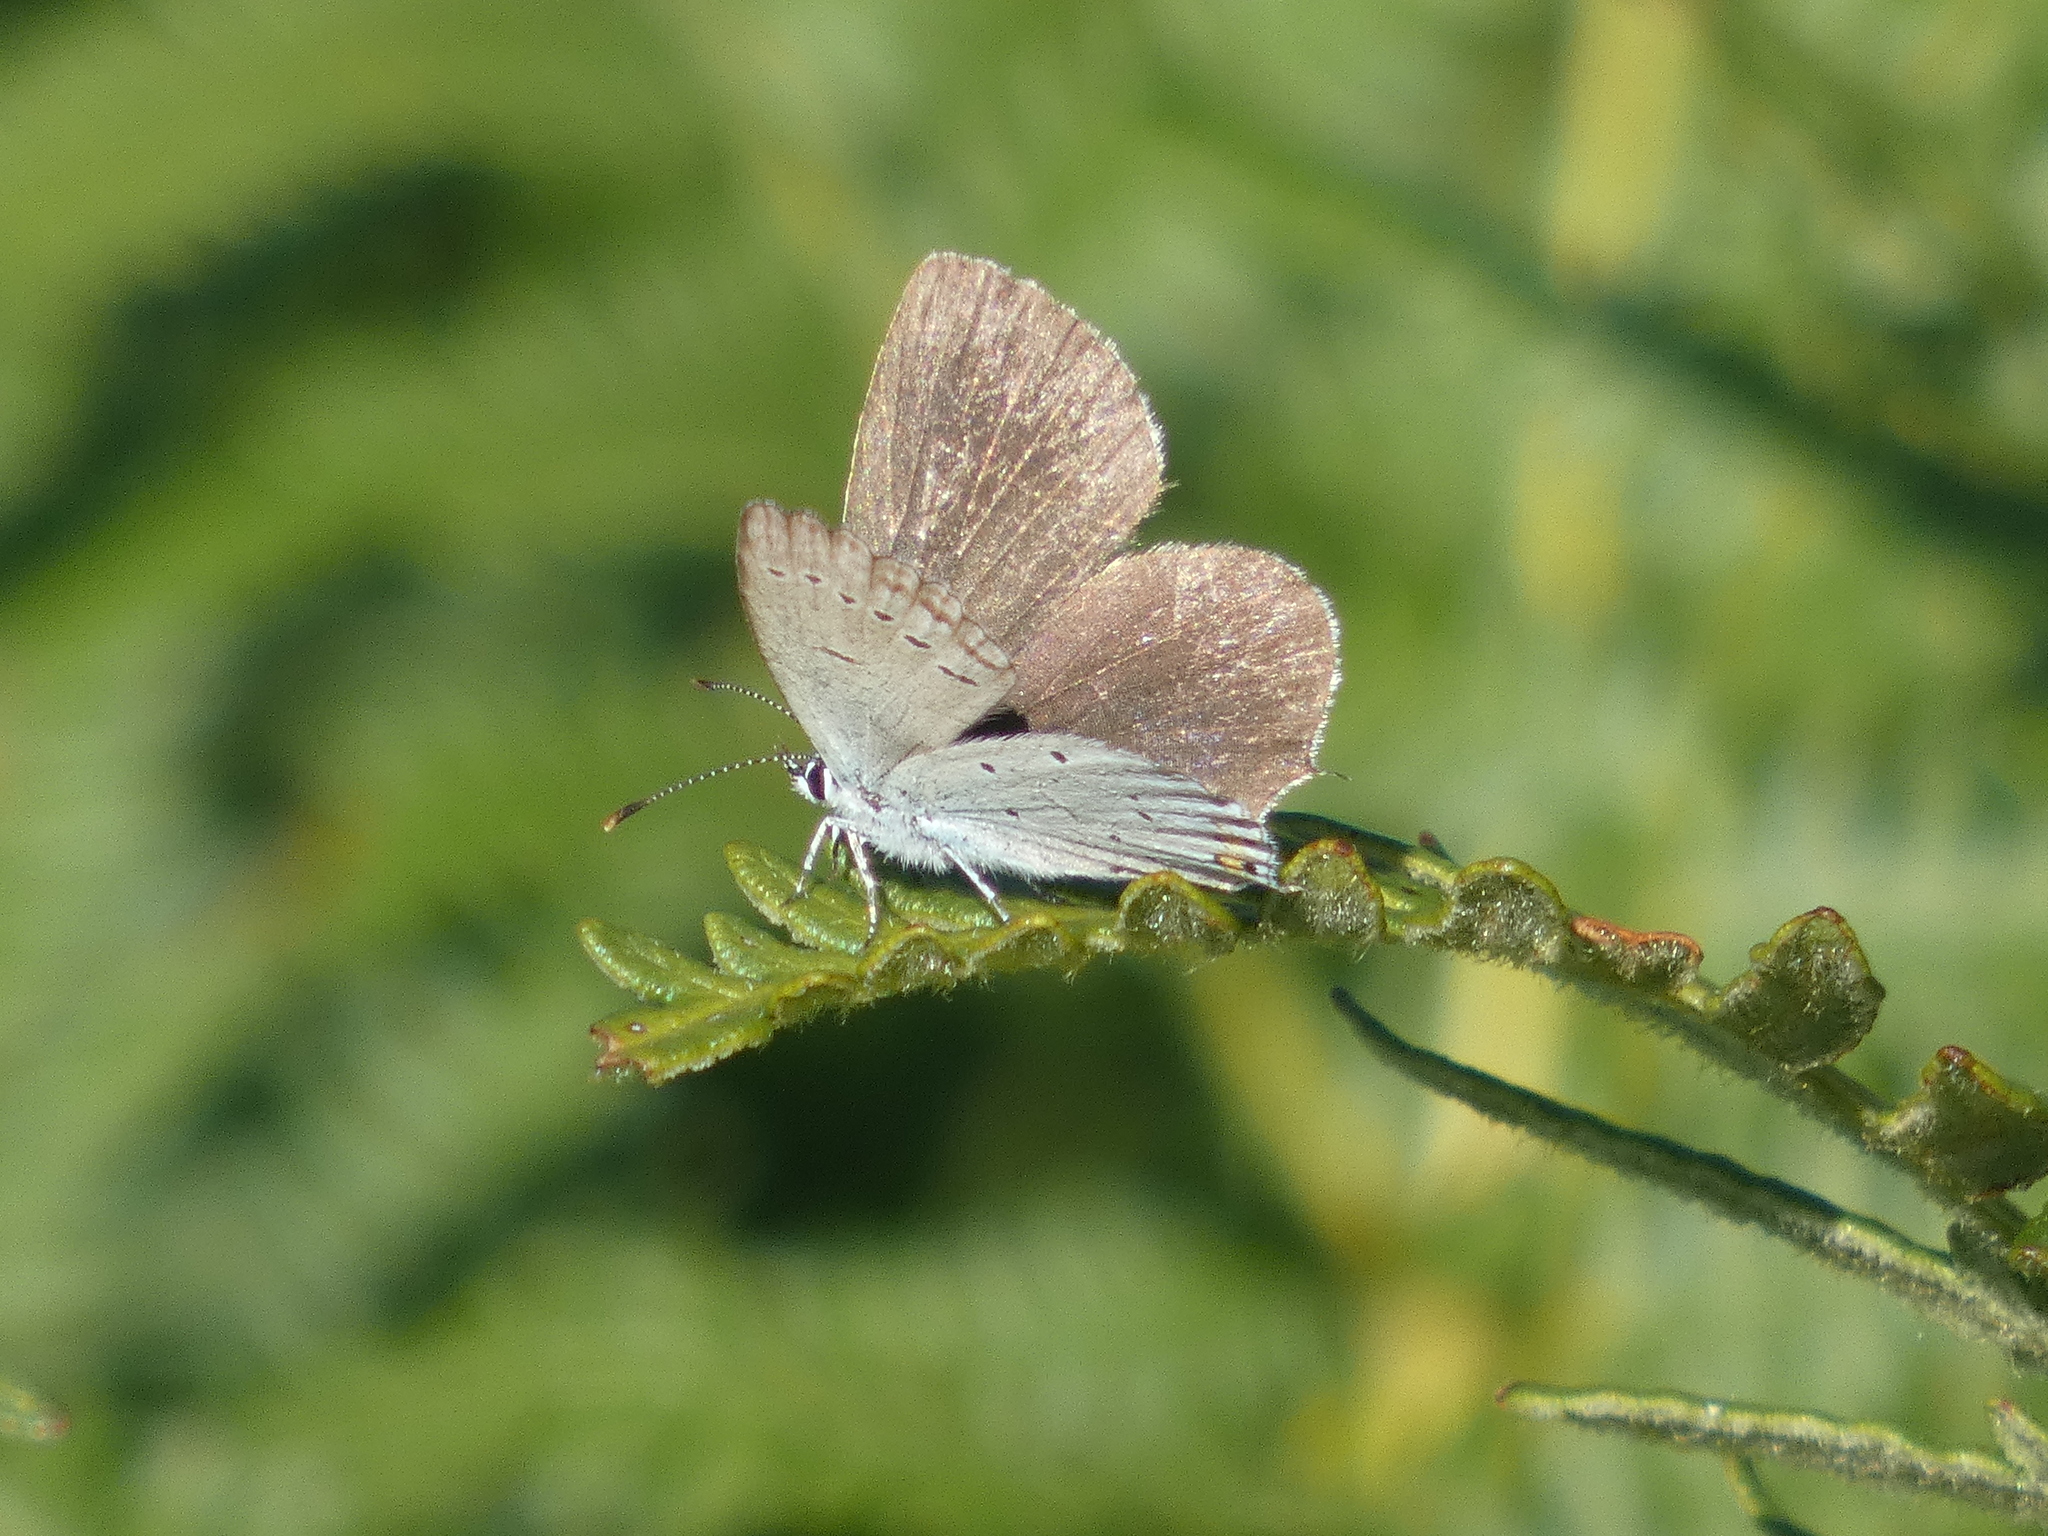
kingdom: Animalia
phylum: Arthropoda
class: Insecta
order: Lepidoptera
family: Lycaenidae
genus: Elkalyce
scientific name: Elkalyce argiades
